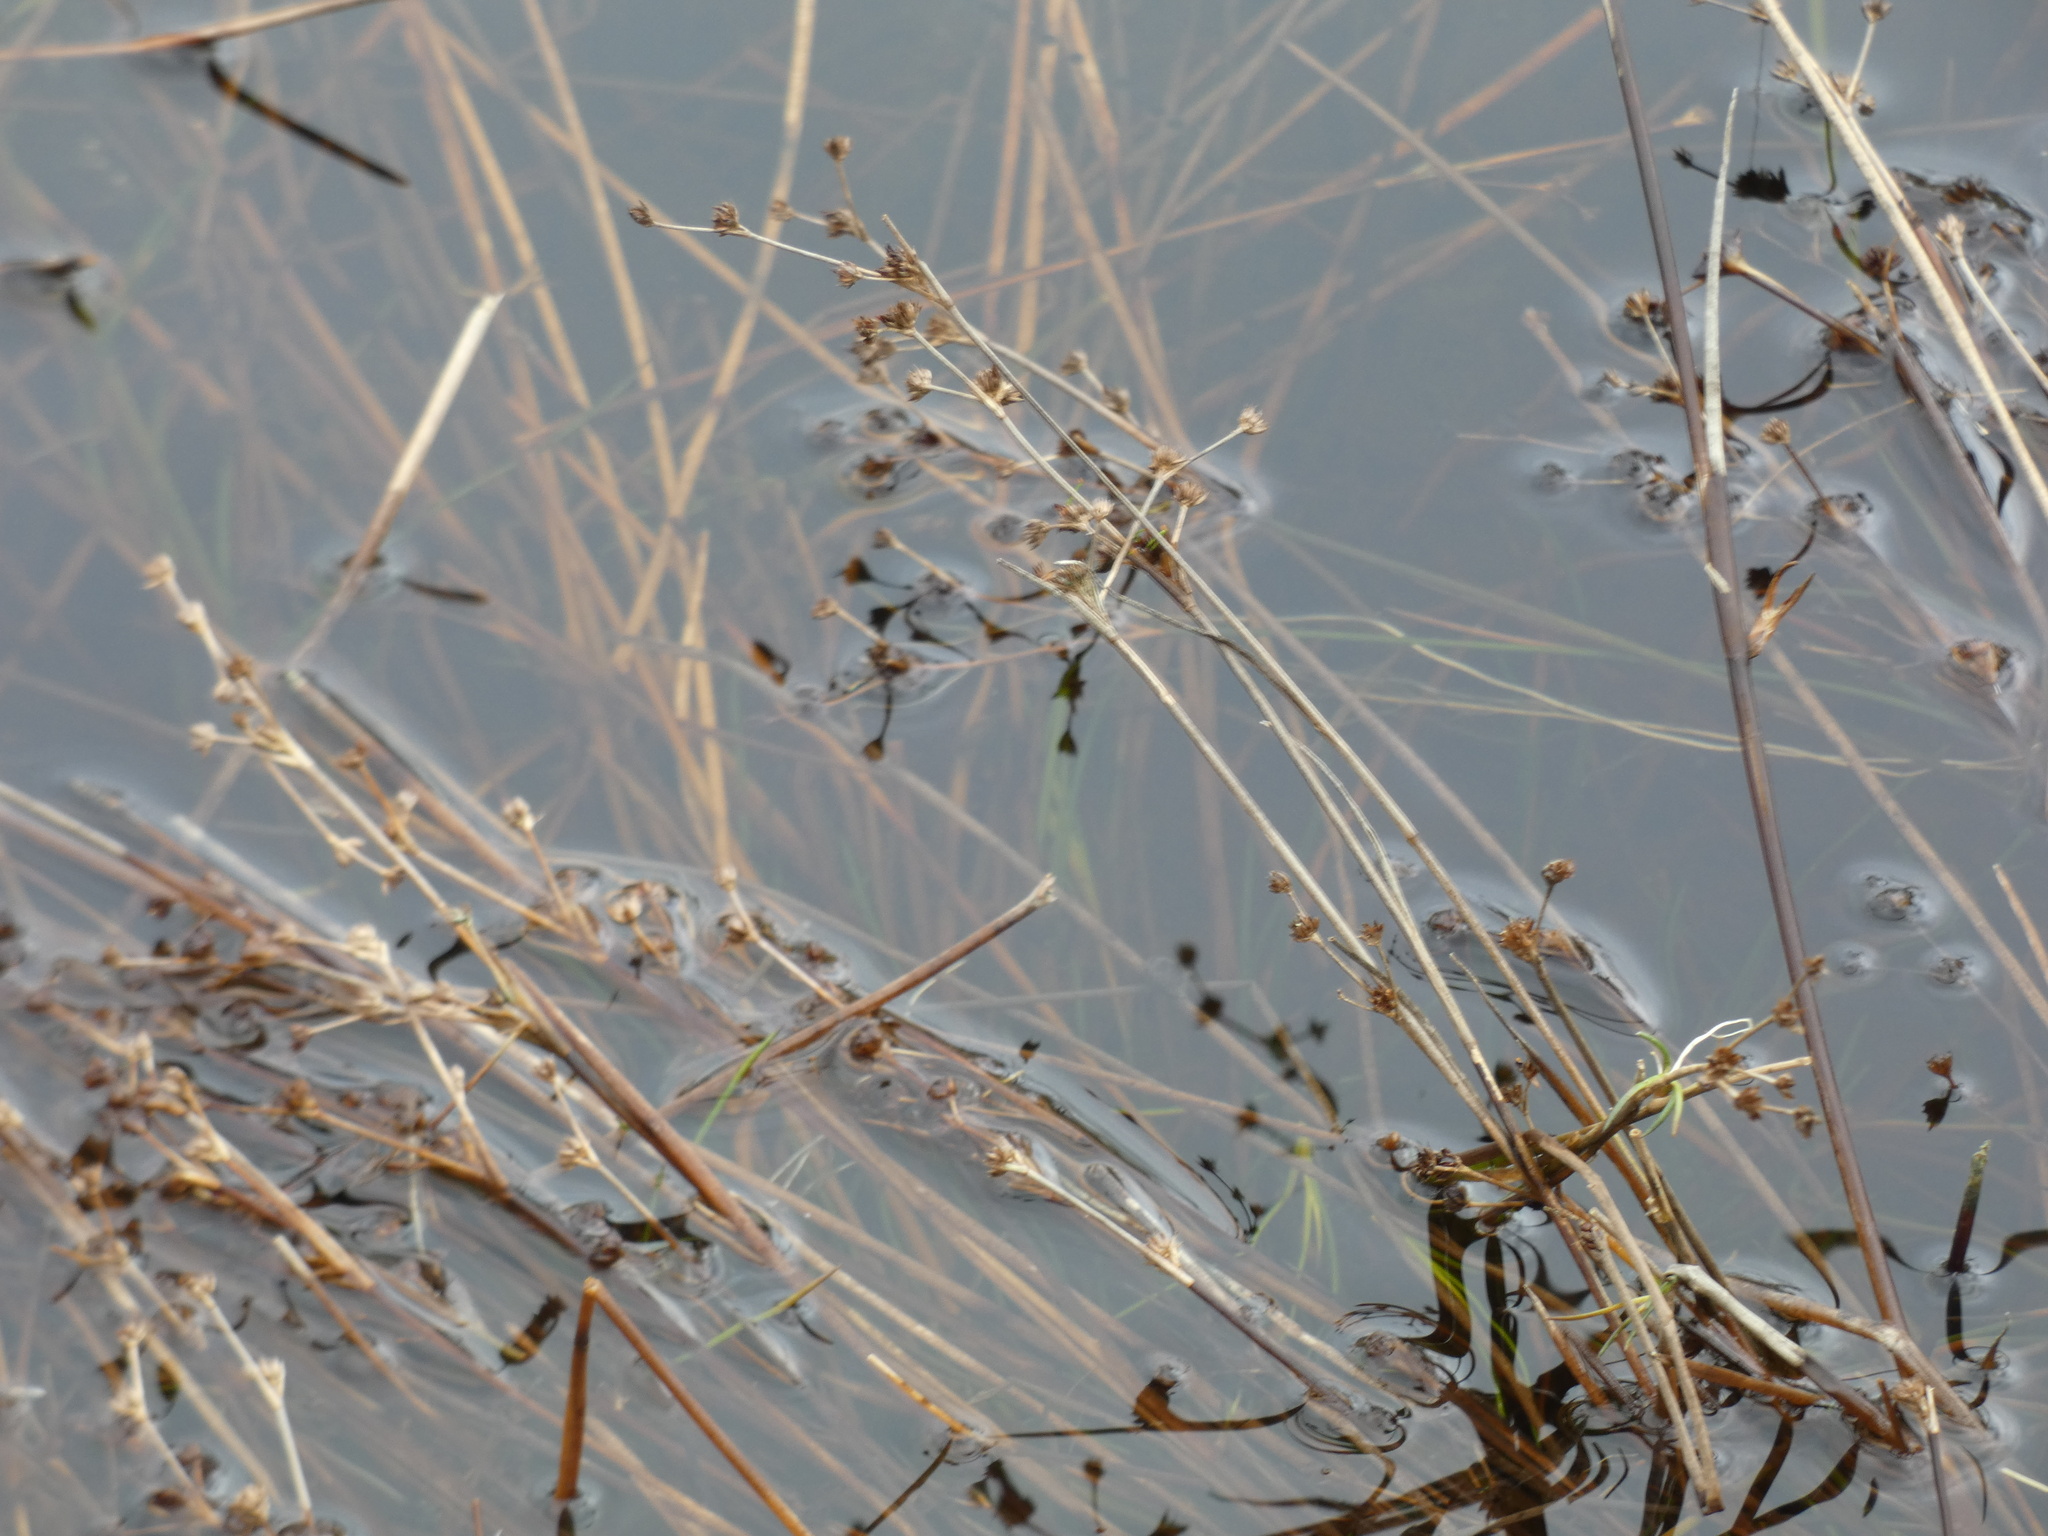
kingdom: Plantae
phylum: Tracheophyta
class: Liliopsida
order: Poales
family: Juncaceae
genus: Juncus
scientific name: Juncus articulatus
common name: Jointed rush
